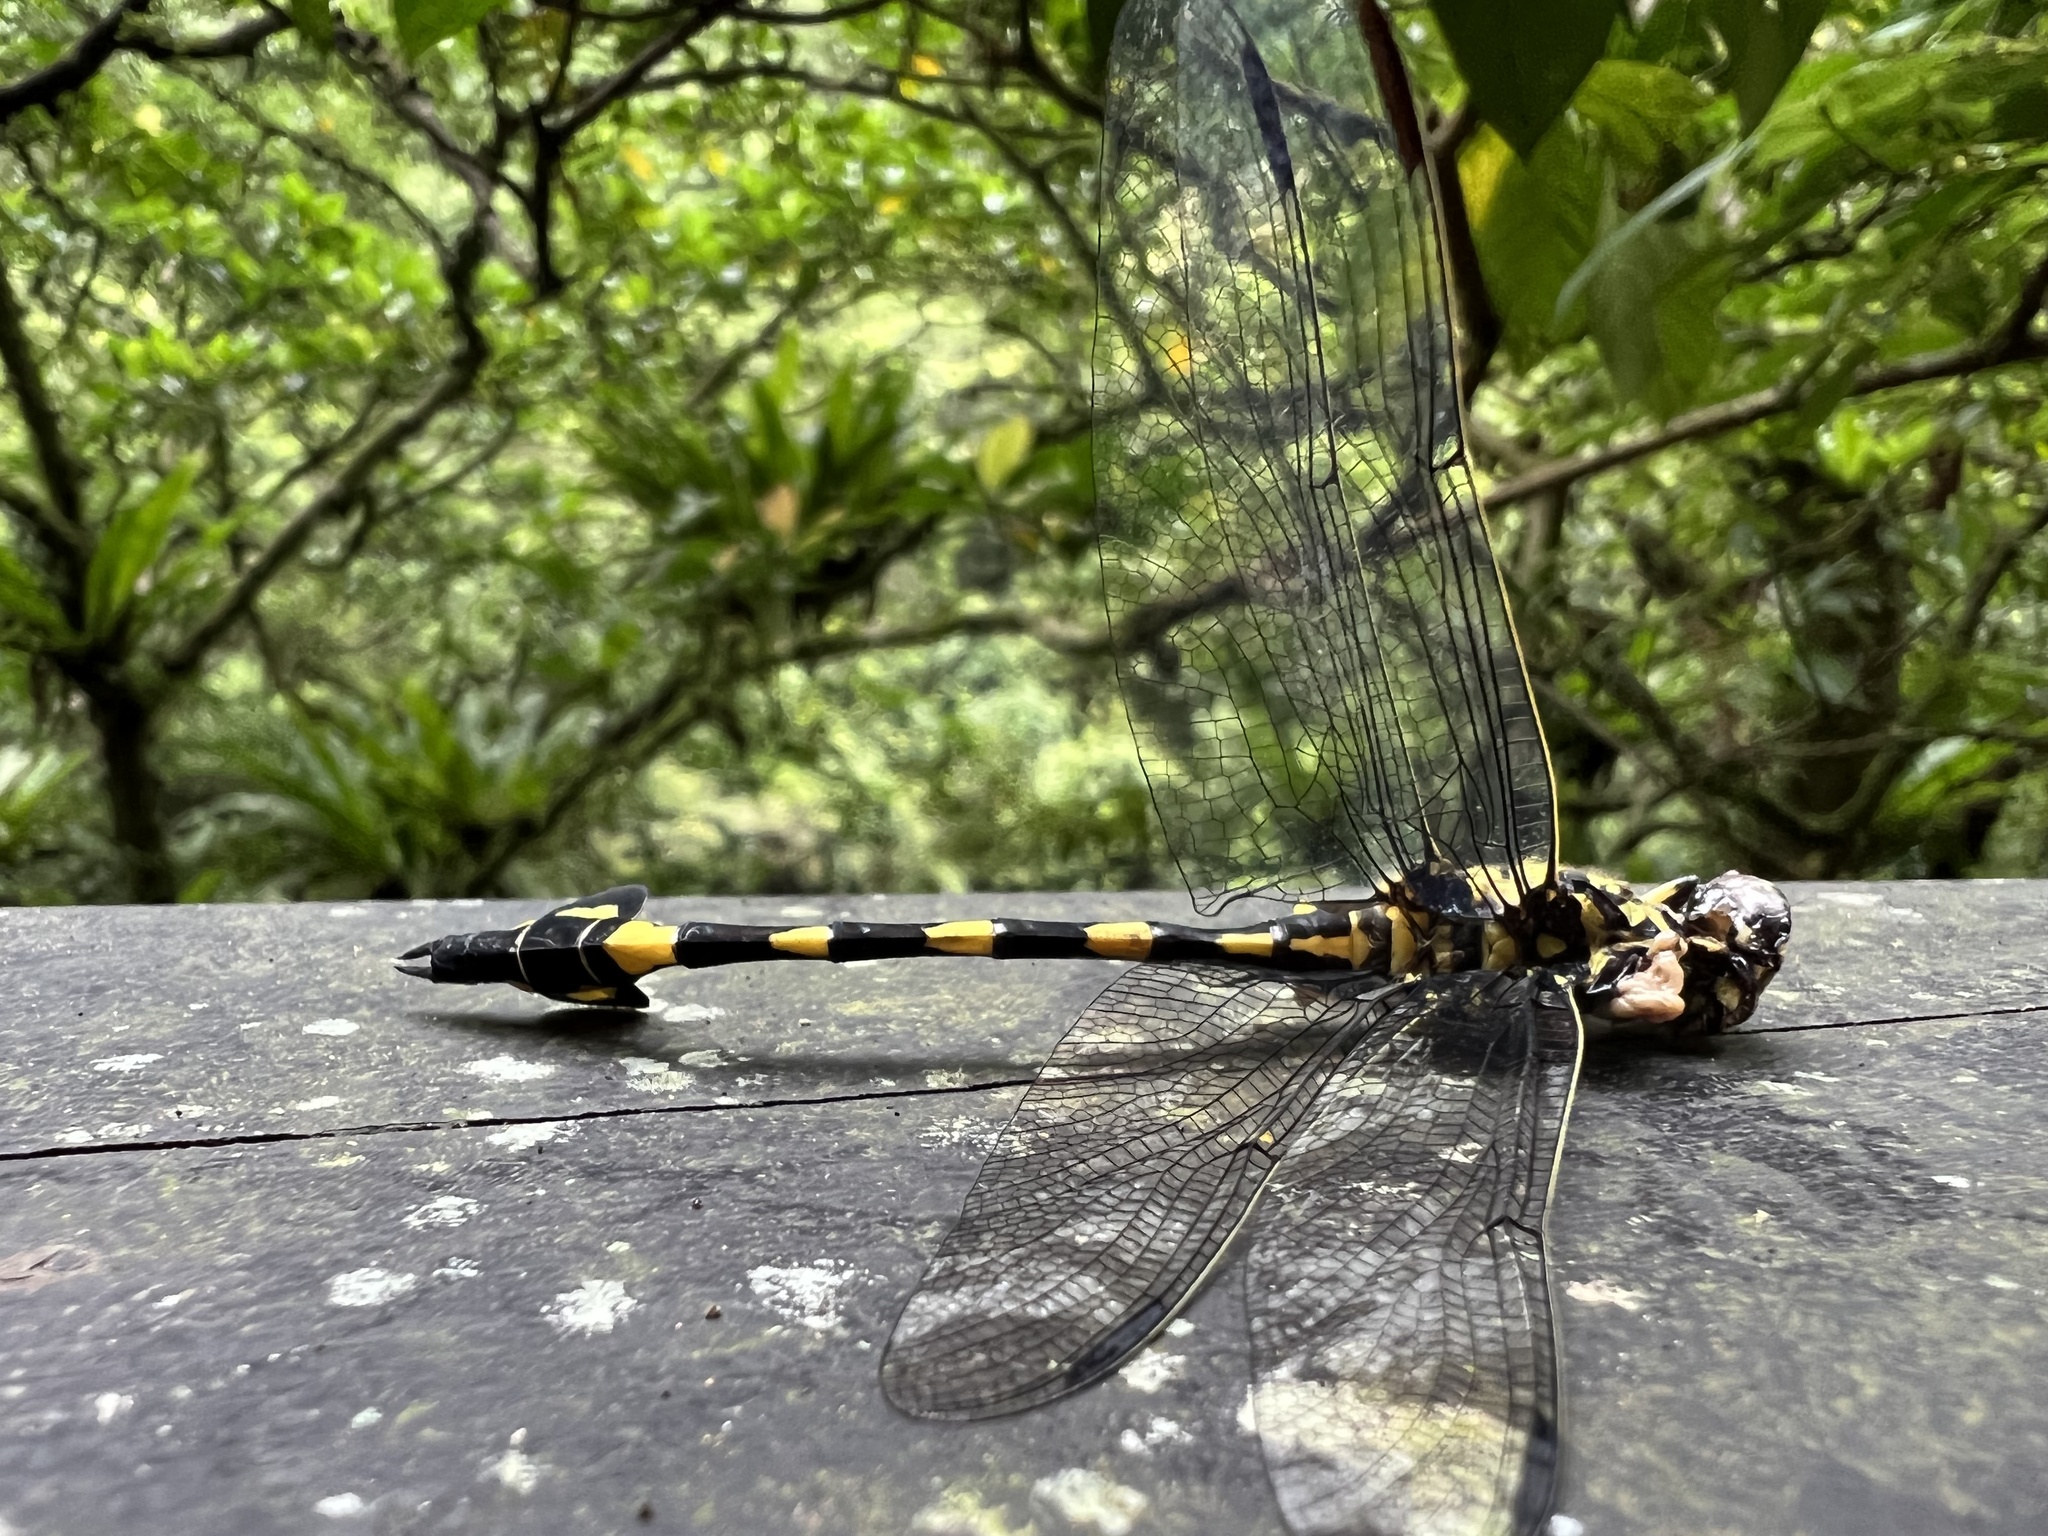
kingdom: Animalia
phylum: Arthropoda
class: Insecta
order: Odonata
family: Gomphidae
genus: Sinictinogomphus
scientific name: Sinictinogomphus clavatus
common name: Golden flangetail
